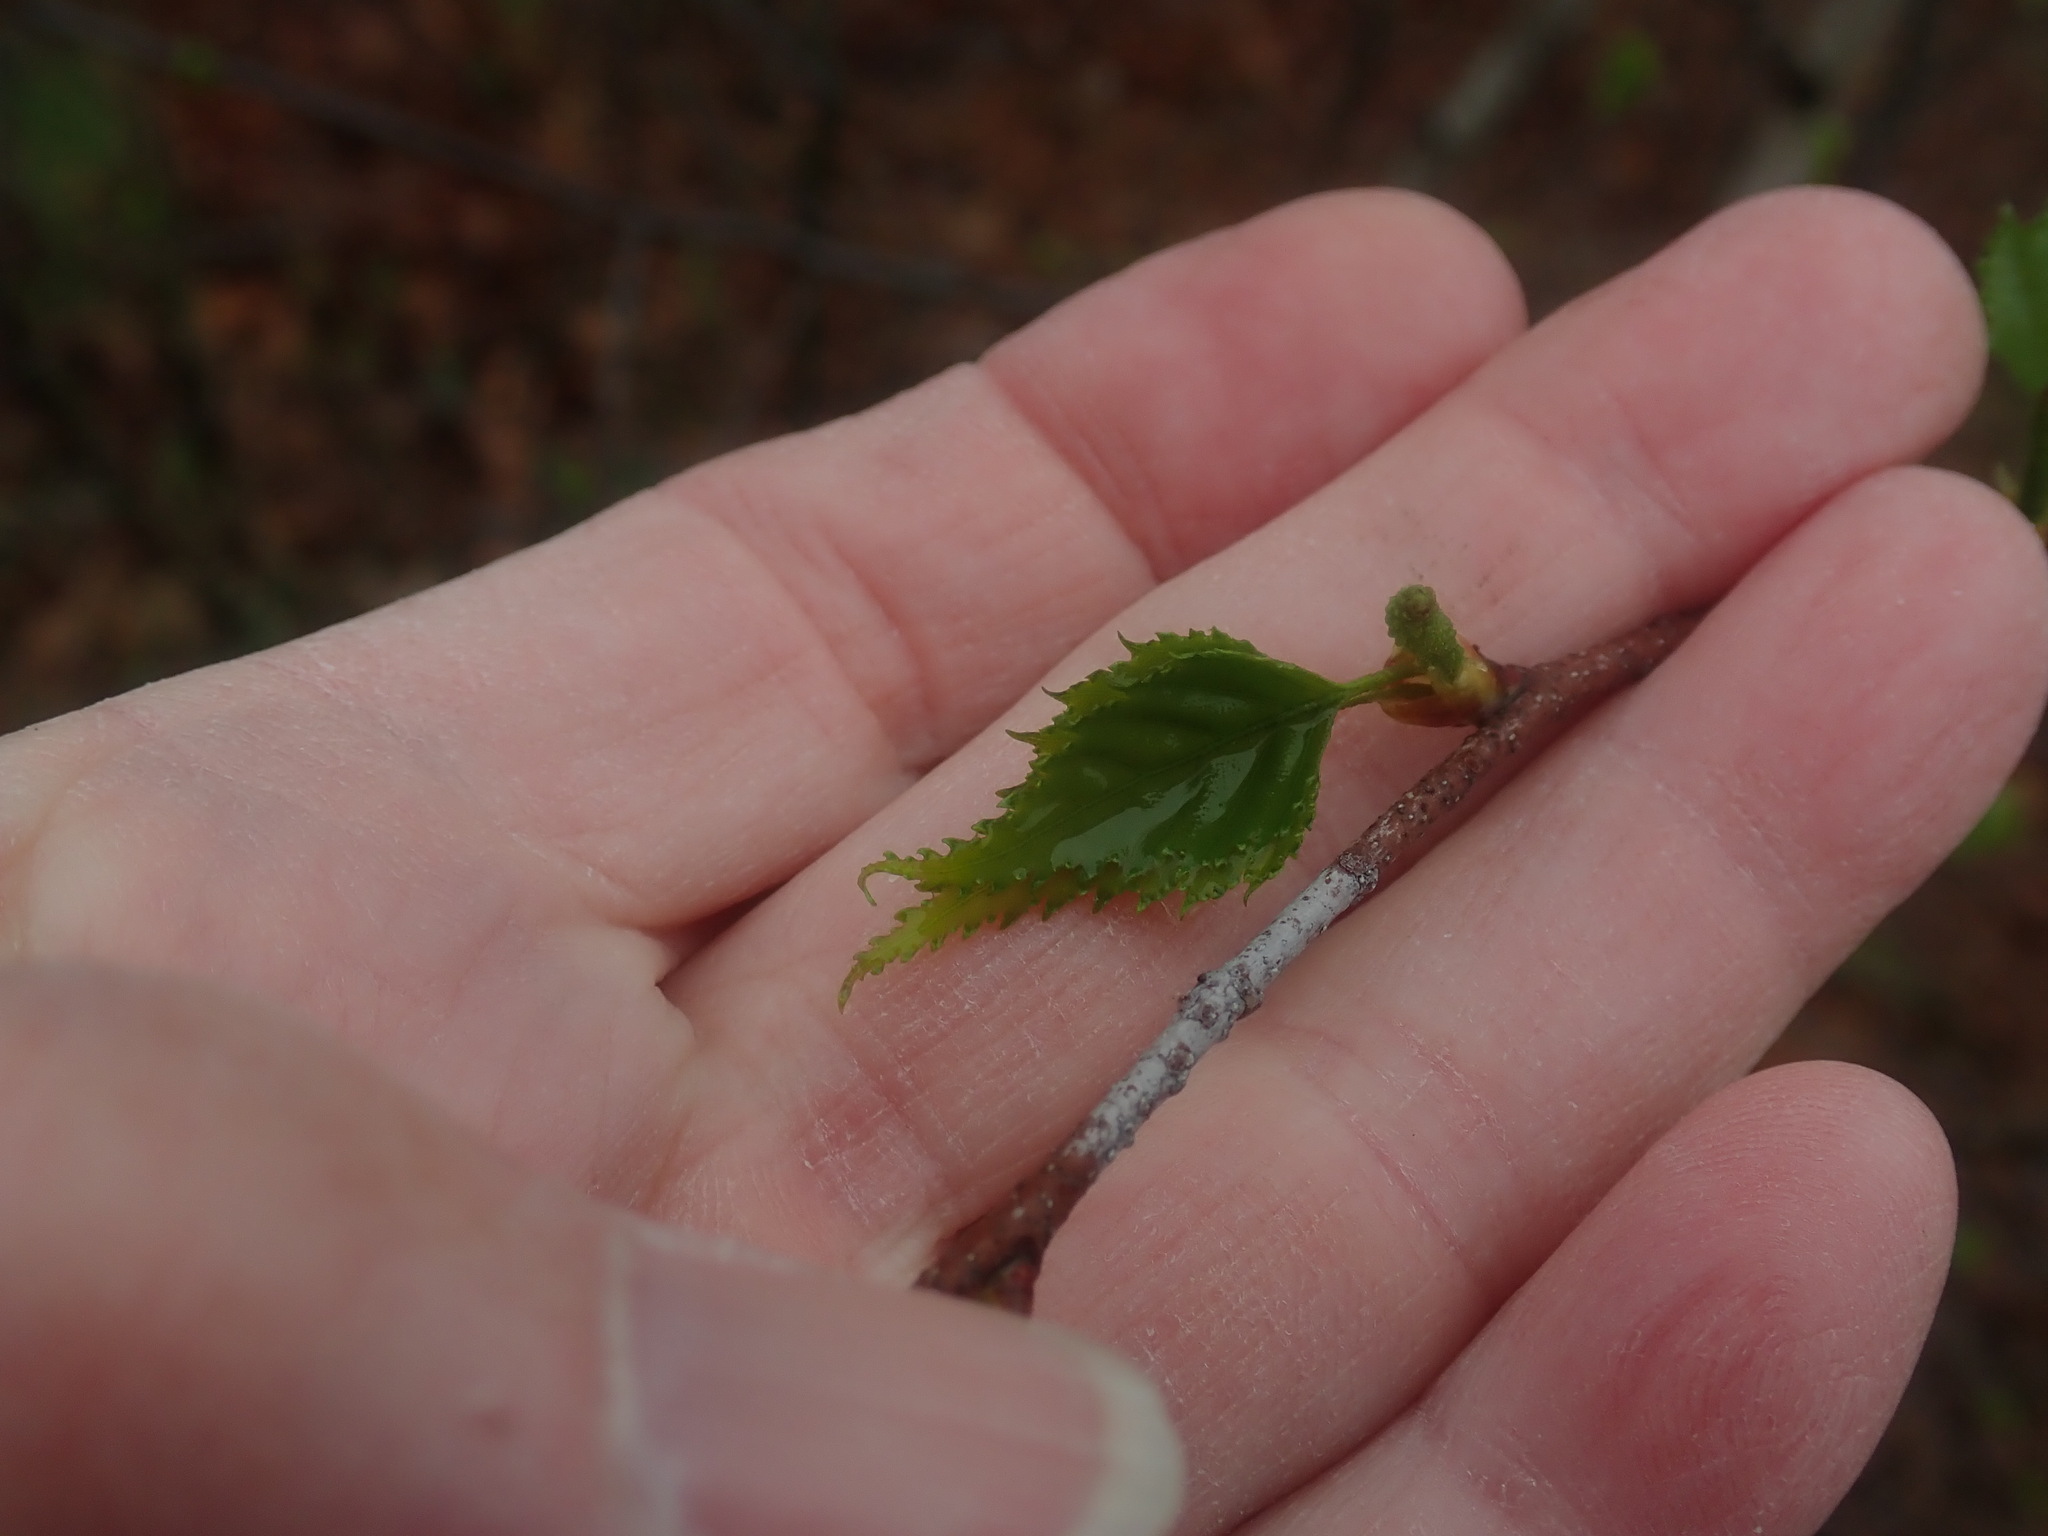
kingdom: Plantae
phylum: Tracheophyta
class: Magnoliopsida
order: Fagales
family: Betulaceae
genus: Betula
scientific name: Betula populifolia
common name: Fire birch
